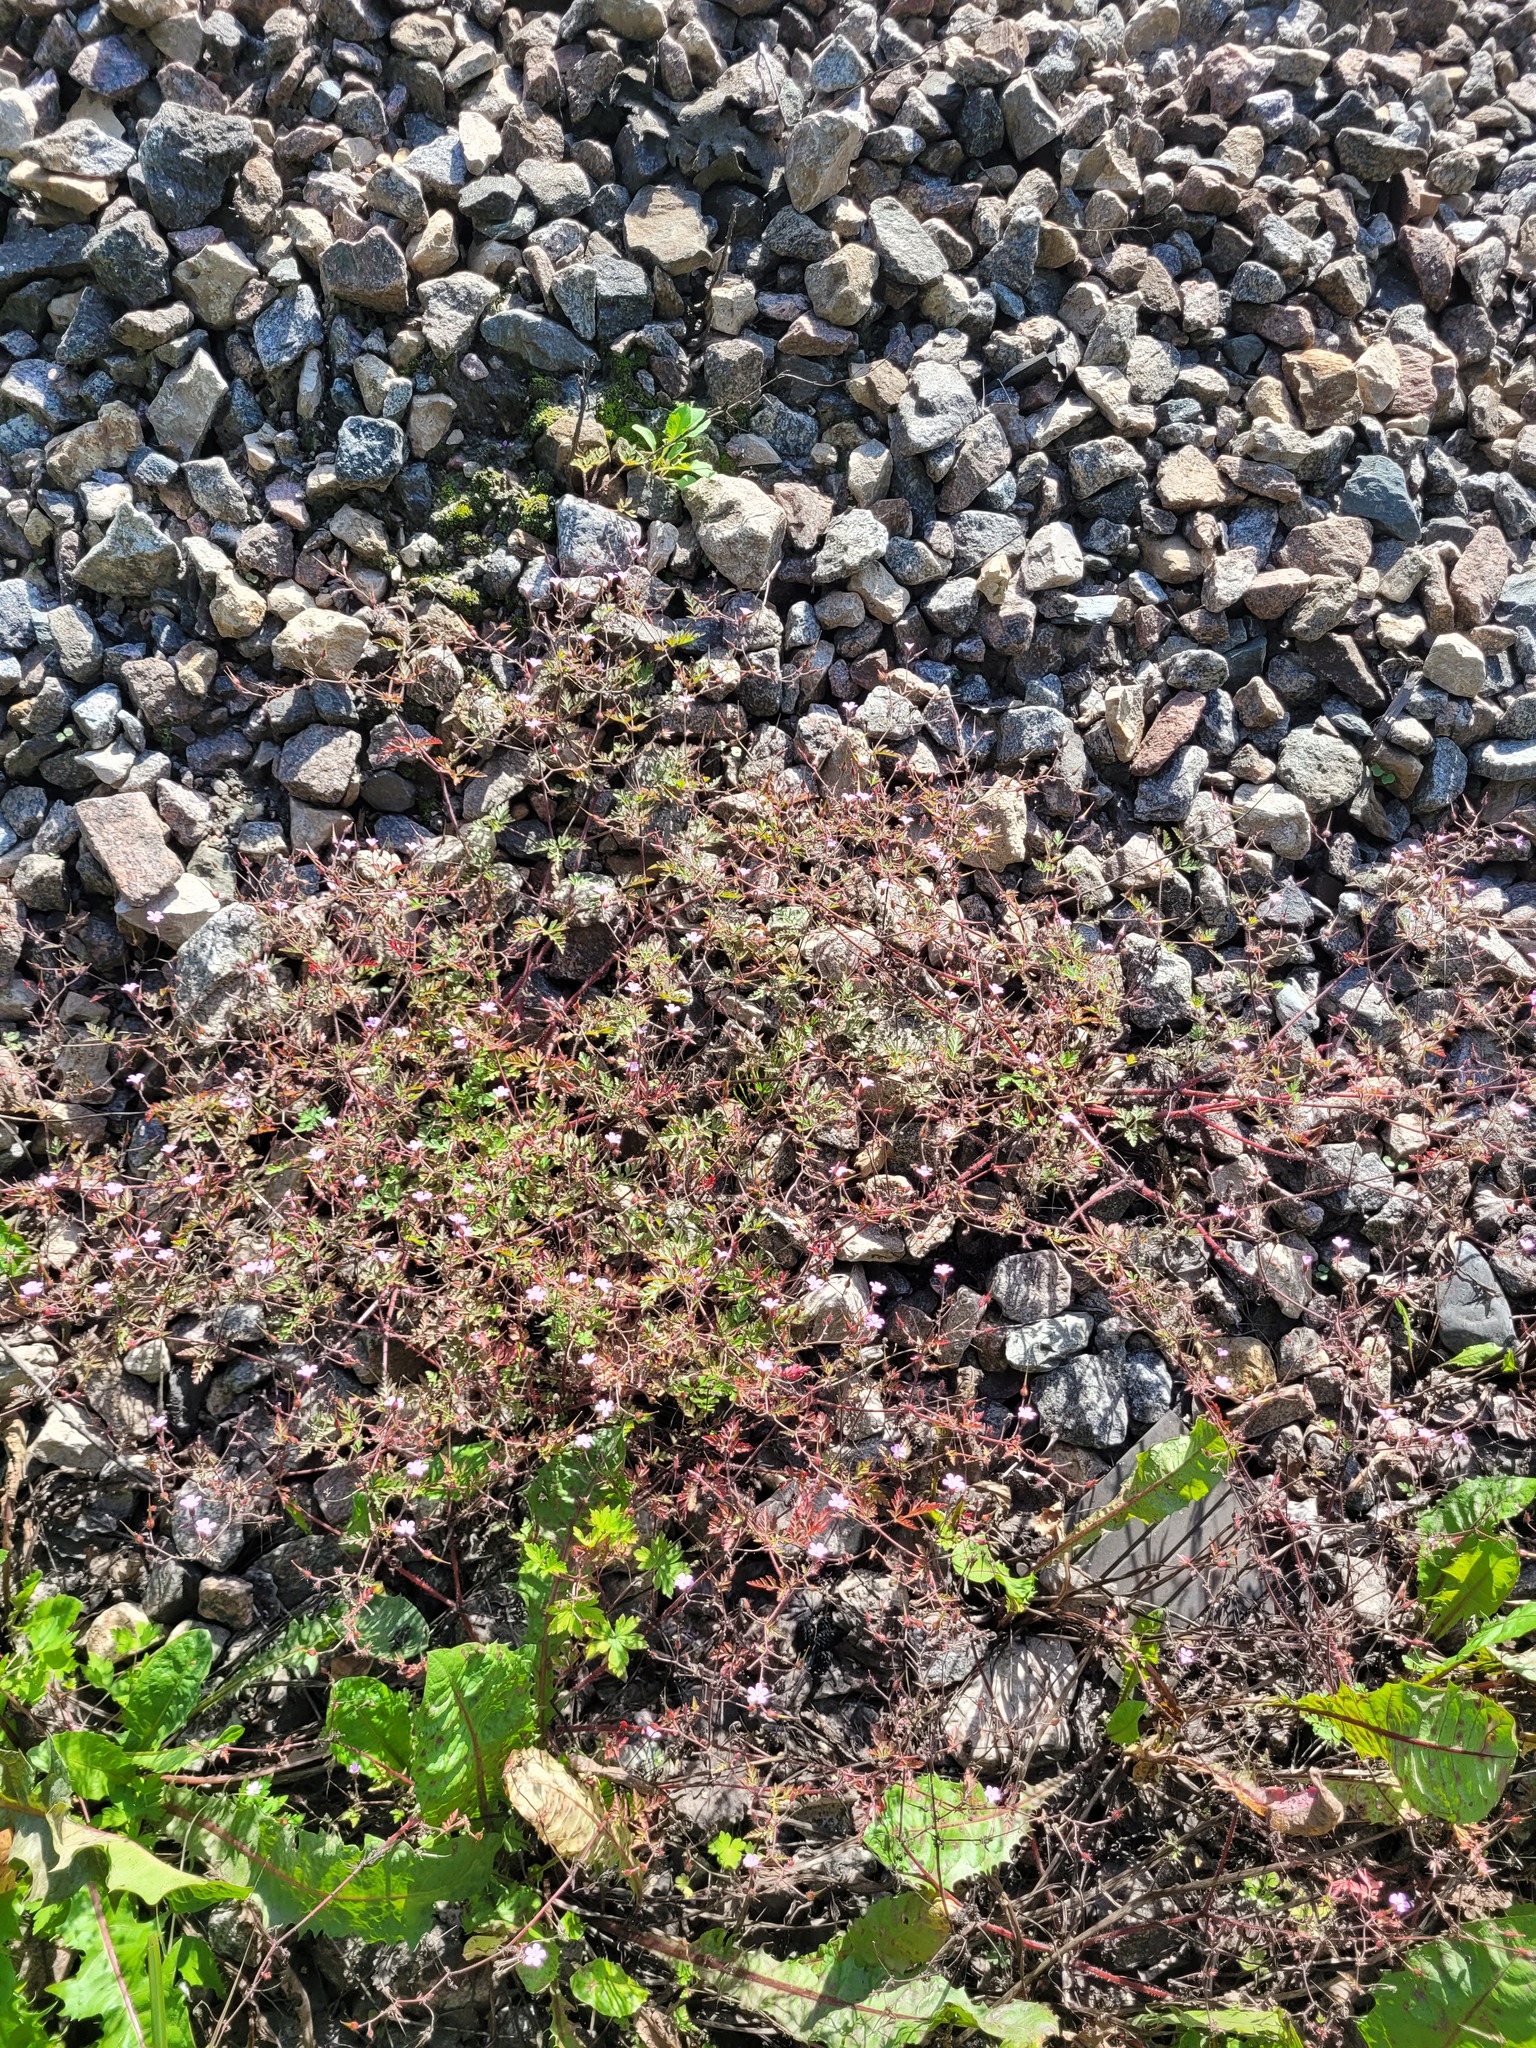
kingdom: Plantae
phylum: Tracheophyta
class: Magnoliopsida
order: Geraniales
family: Geraniaceae
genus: Geranium
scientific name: Geranium robertianum
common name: Herb-robert
